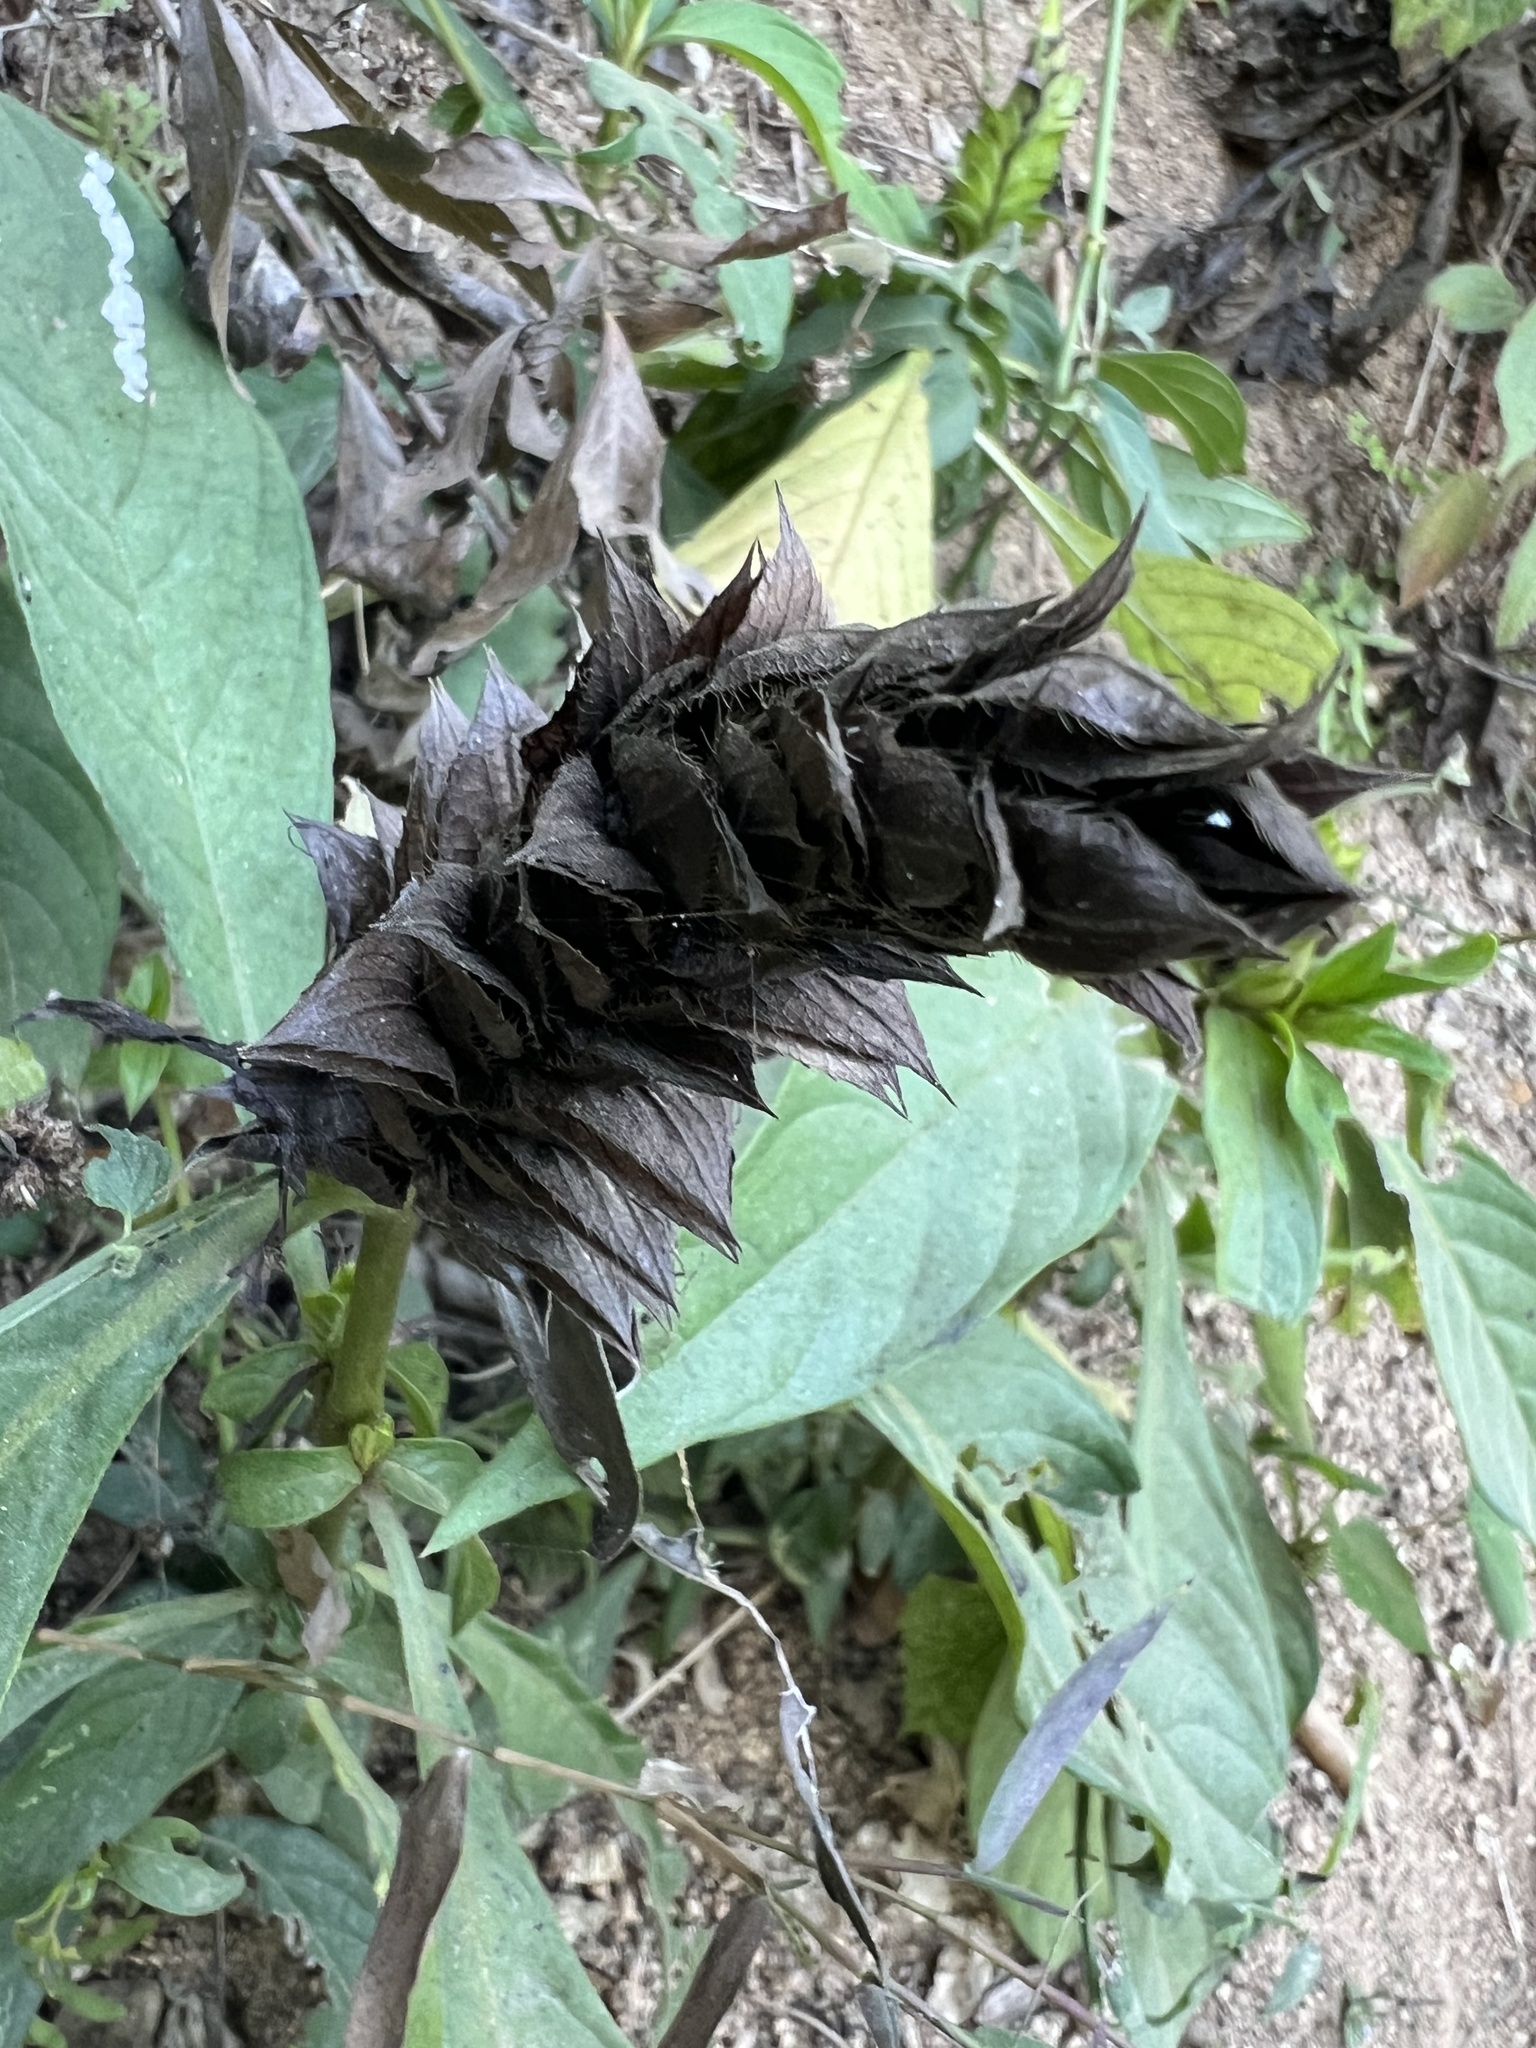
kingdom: Plantae
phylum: Tracheophyta
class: Magnoliopsida
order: Lamiales
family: Acanthaceae
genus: Barleria
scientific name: Barleria oenotheroides
